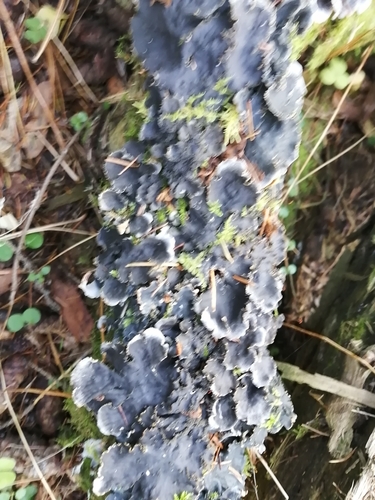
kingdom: Fungi
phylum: Ascomycota
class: Lecanoromycetes
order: Peltigerales
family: Peltigeraceae
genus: Peltigera
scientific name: Peltigera
